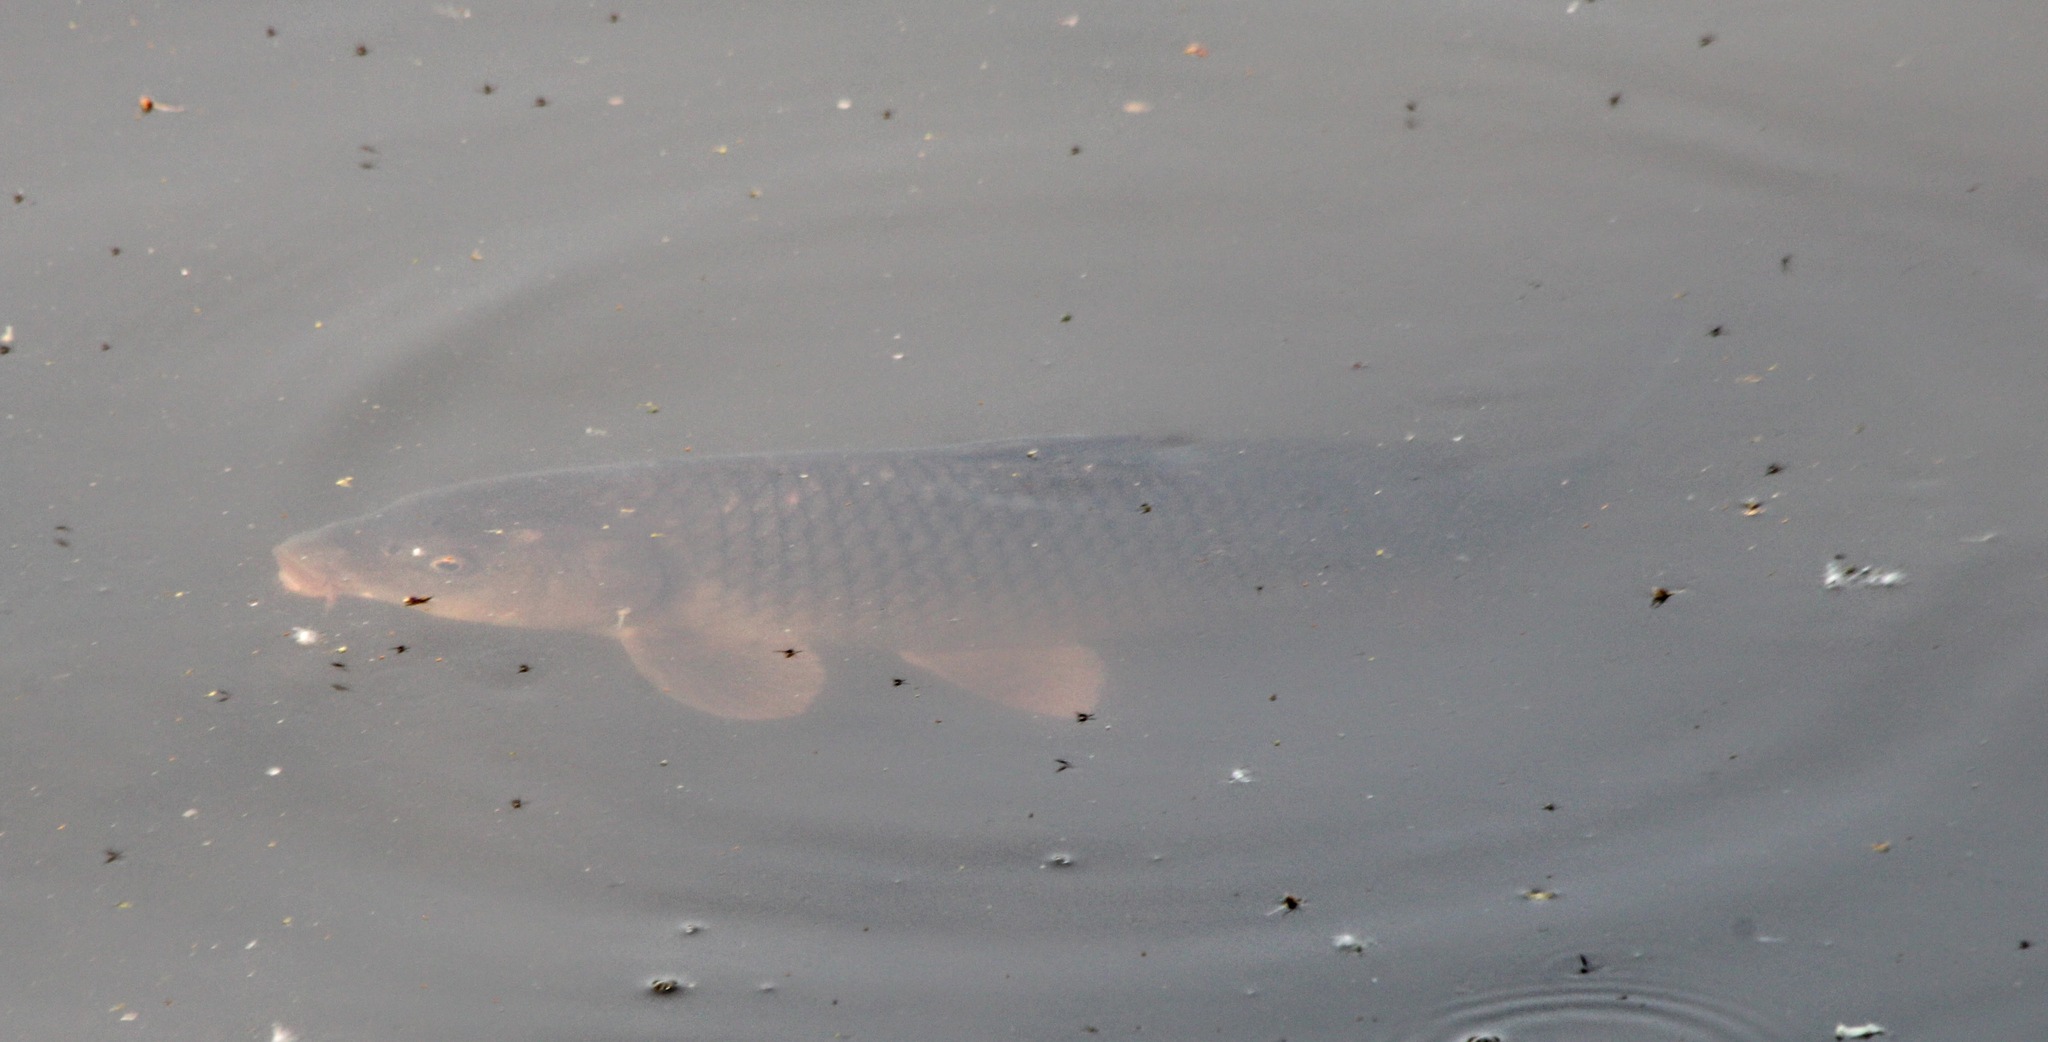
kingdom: Animalia
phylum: Chordata
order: Cypriniformes
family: Cyprinidae
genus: Cyprinus
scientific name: Cyprinus carpio
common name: Common carp
